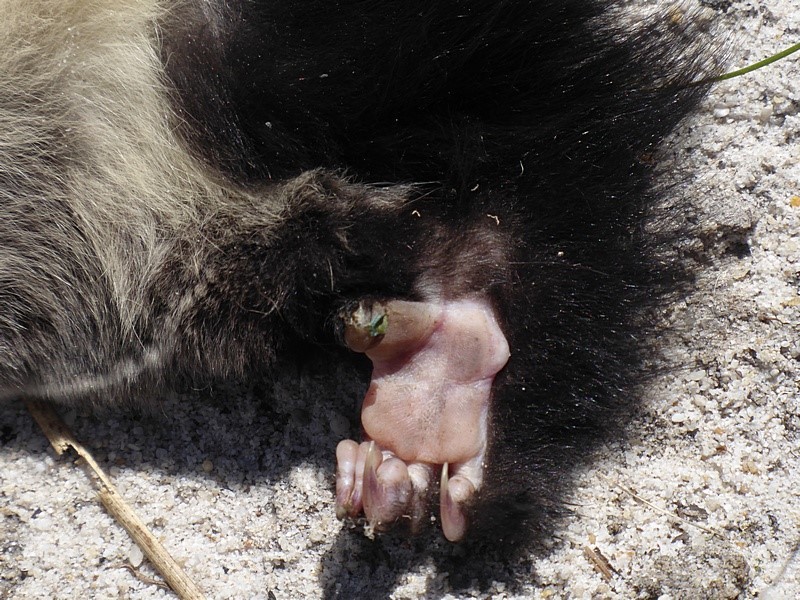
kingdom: Animalia
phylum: Chordata
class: Mammalia
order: Diprotodontia
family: Petauridae
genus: Petaurus
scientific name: Petaurus australis
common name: Yellow-bellied glider
